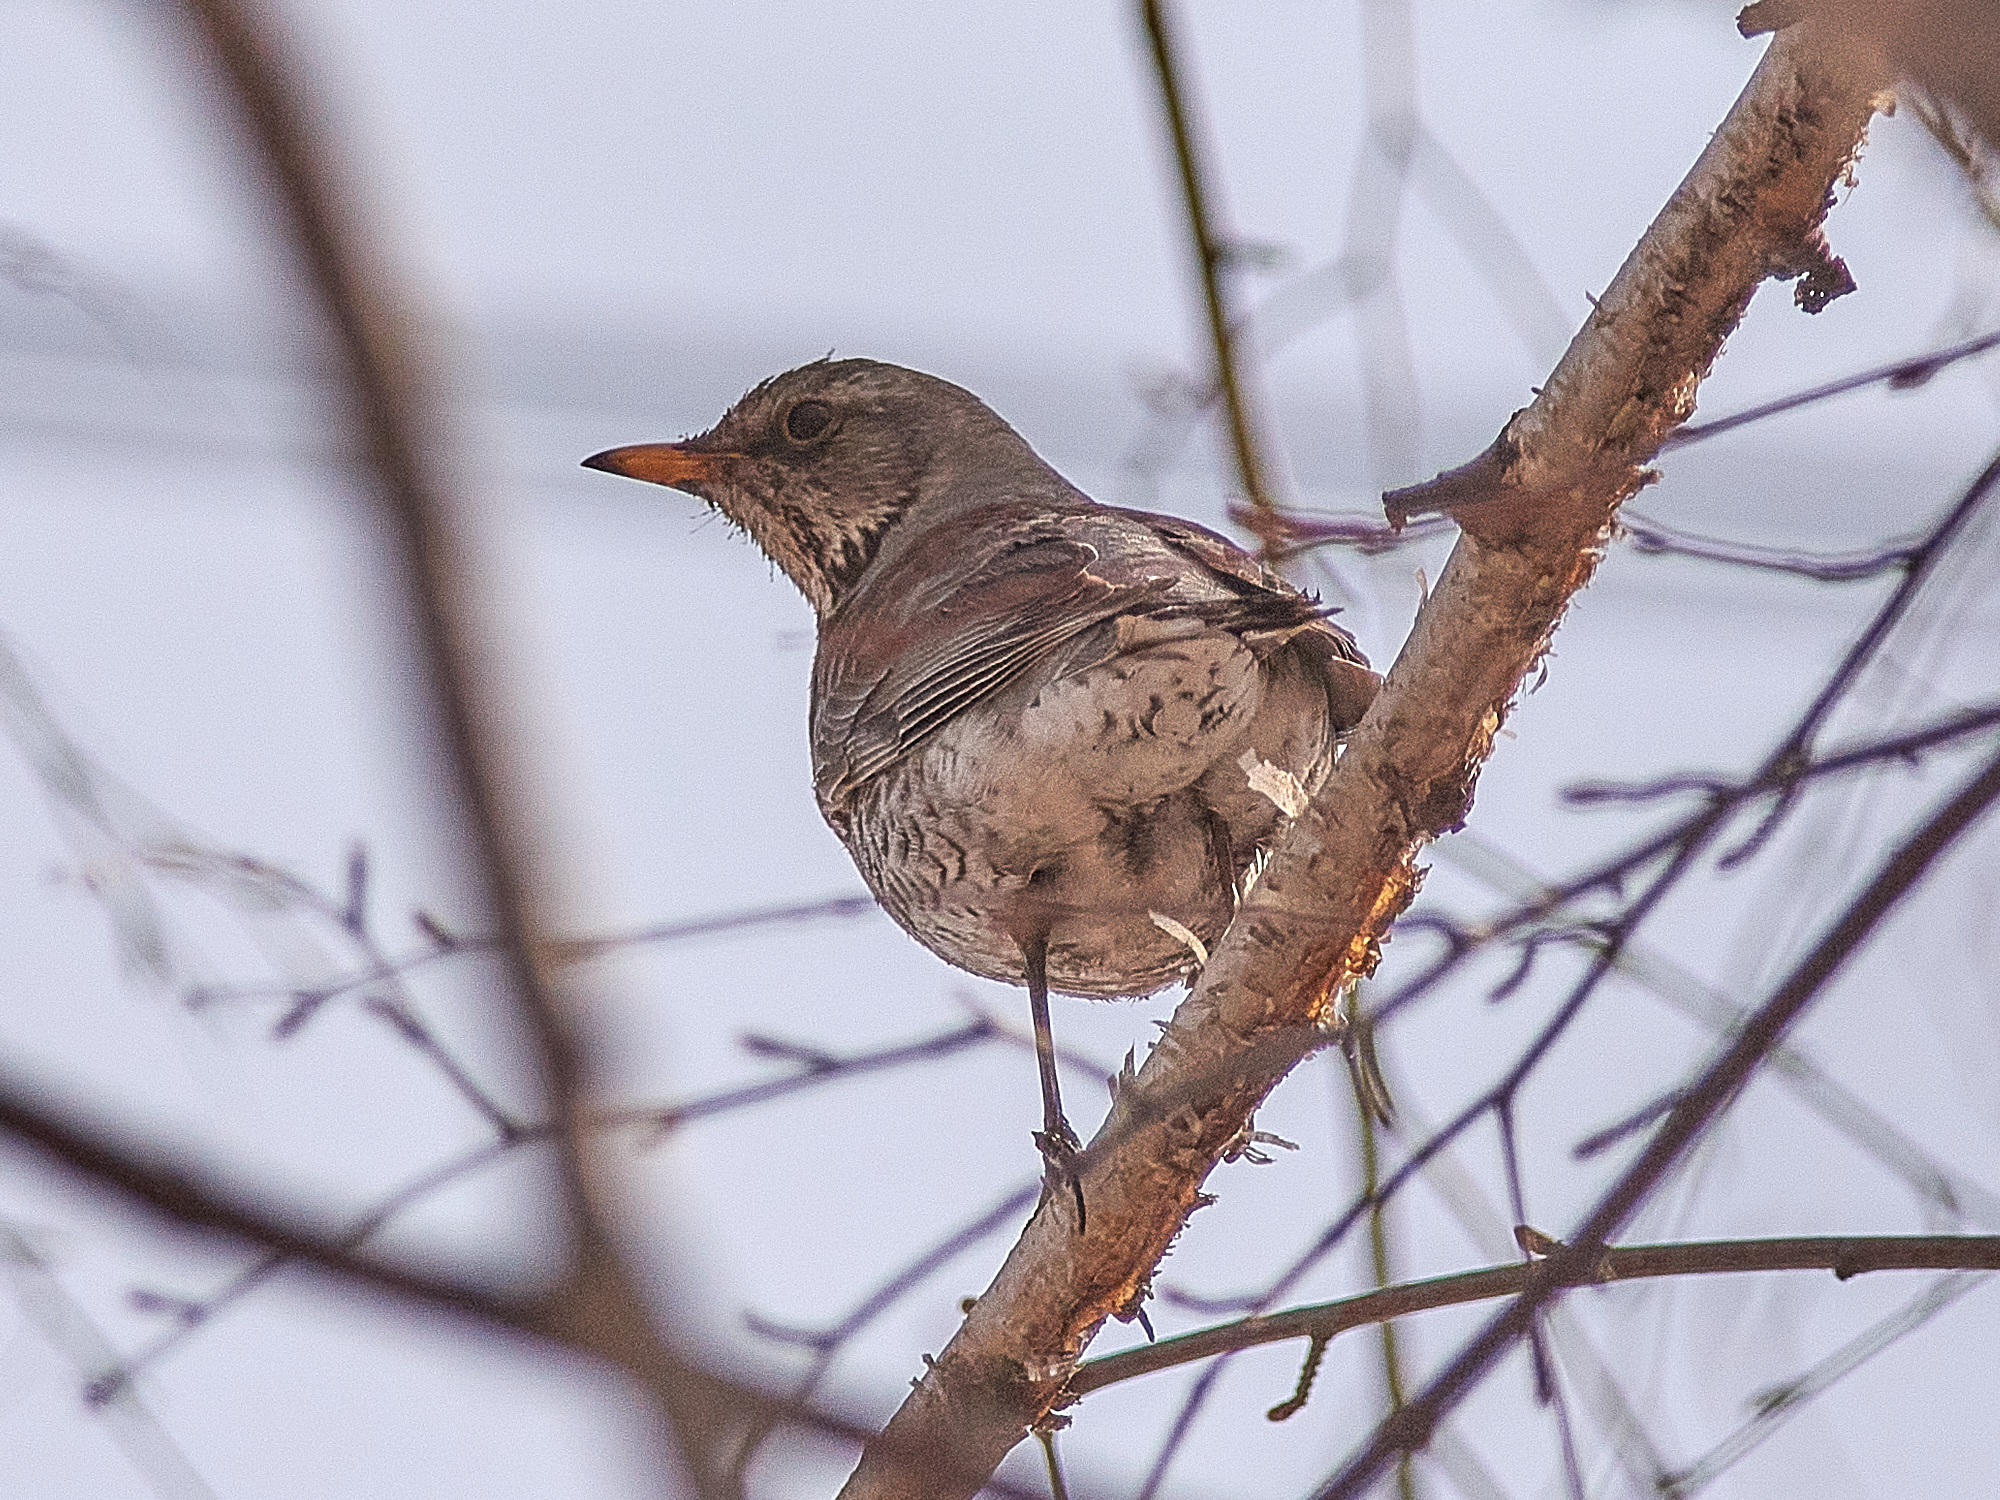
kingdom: Animalia
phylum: Chordata
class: Aves
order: Passeriformes
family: Turdidae
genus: Turdus
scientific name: Turdus pilaris
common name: Fieldfare
